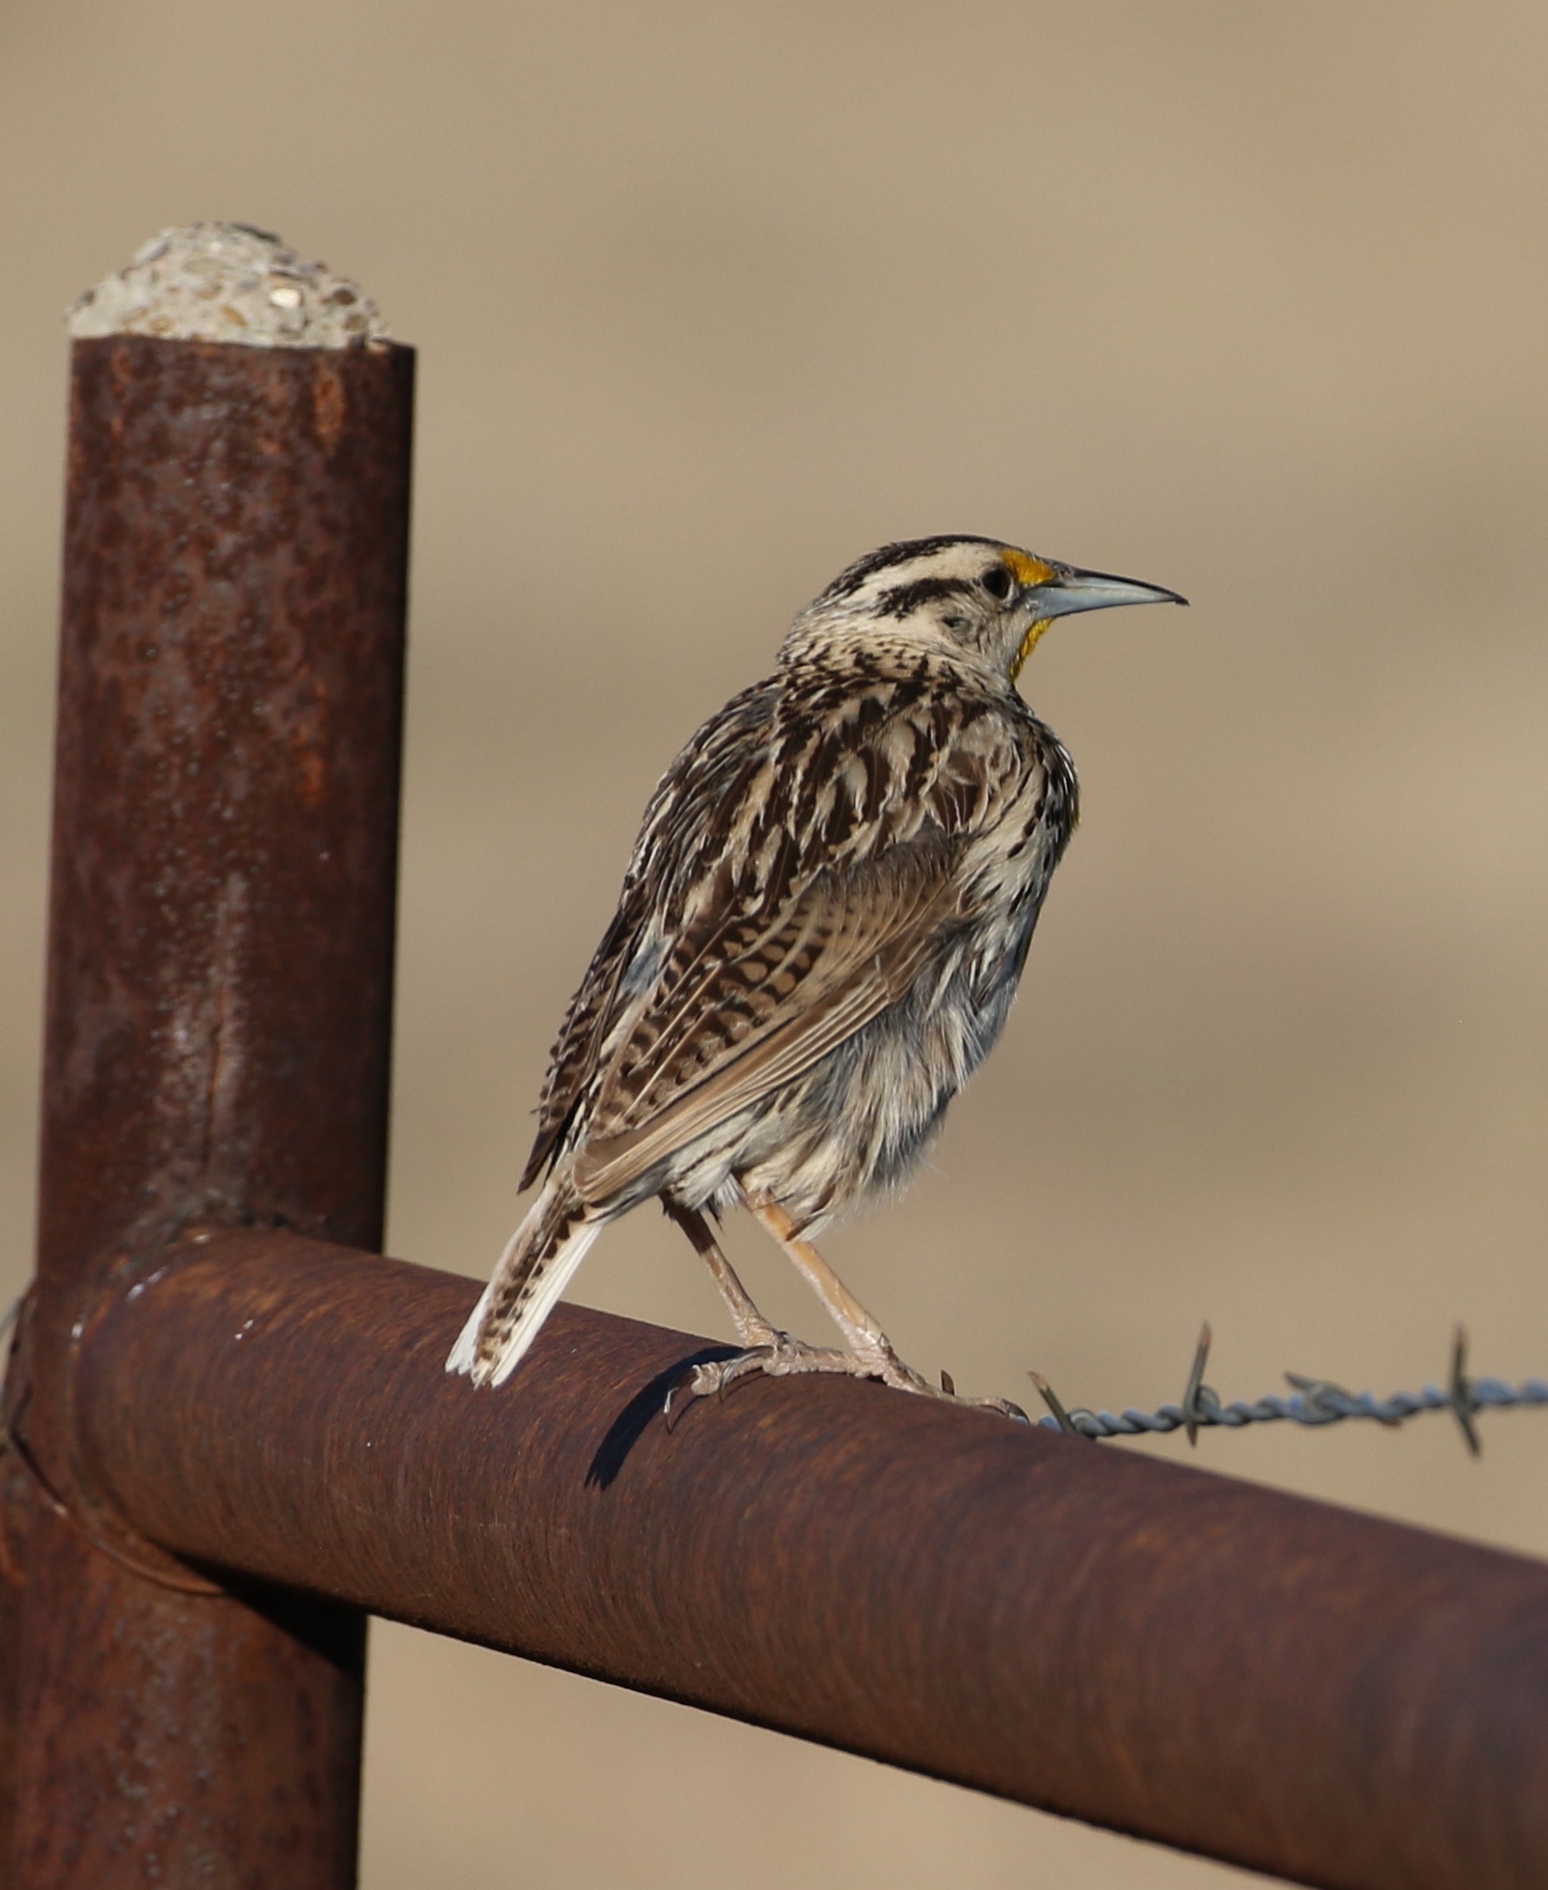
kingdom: Animalia
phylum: Chordata
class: Aves
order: Passeriformes
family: Icteridae
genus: Sturnella
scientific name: Sturnella lilianae
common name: Lilian's meadowlark
